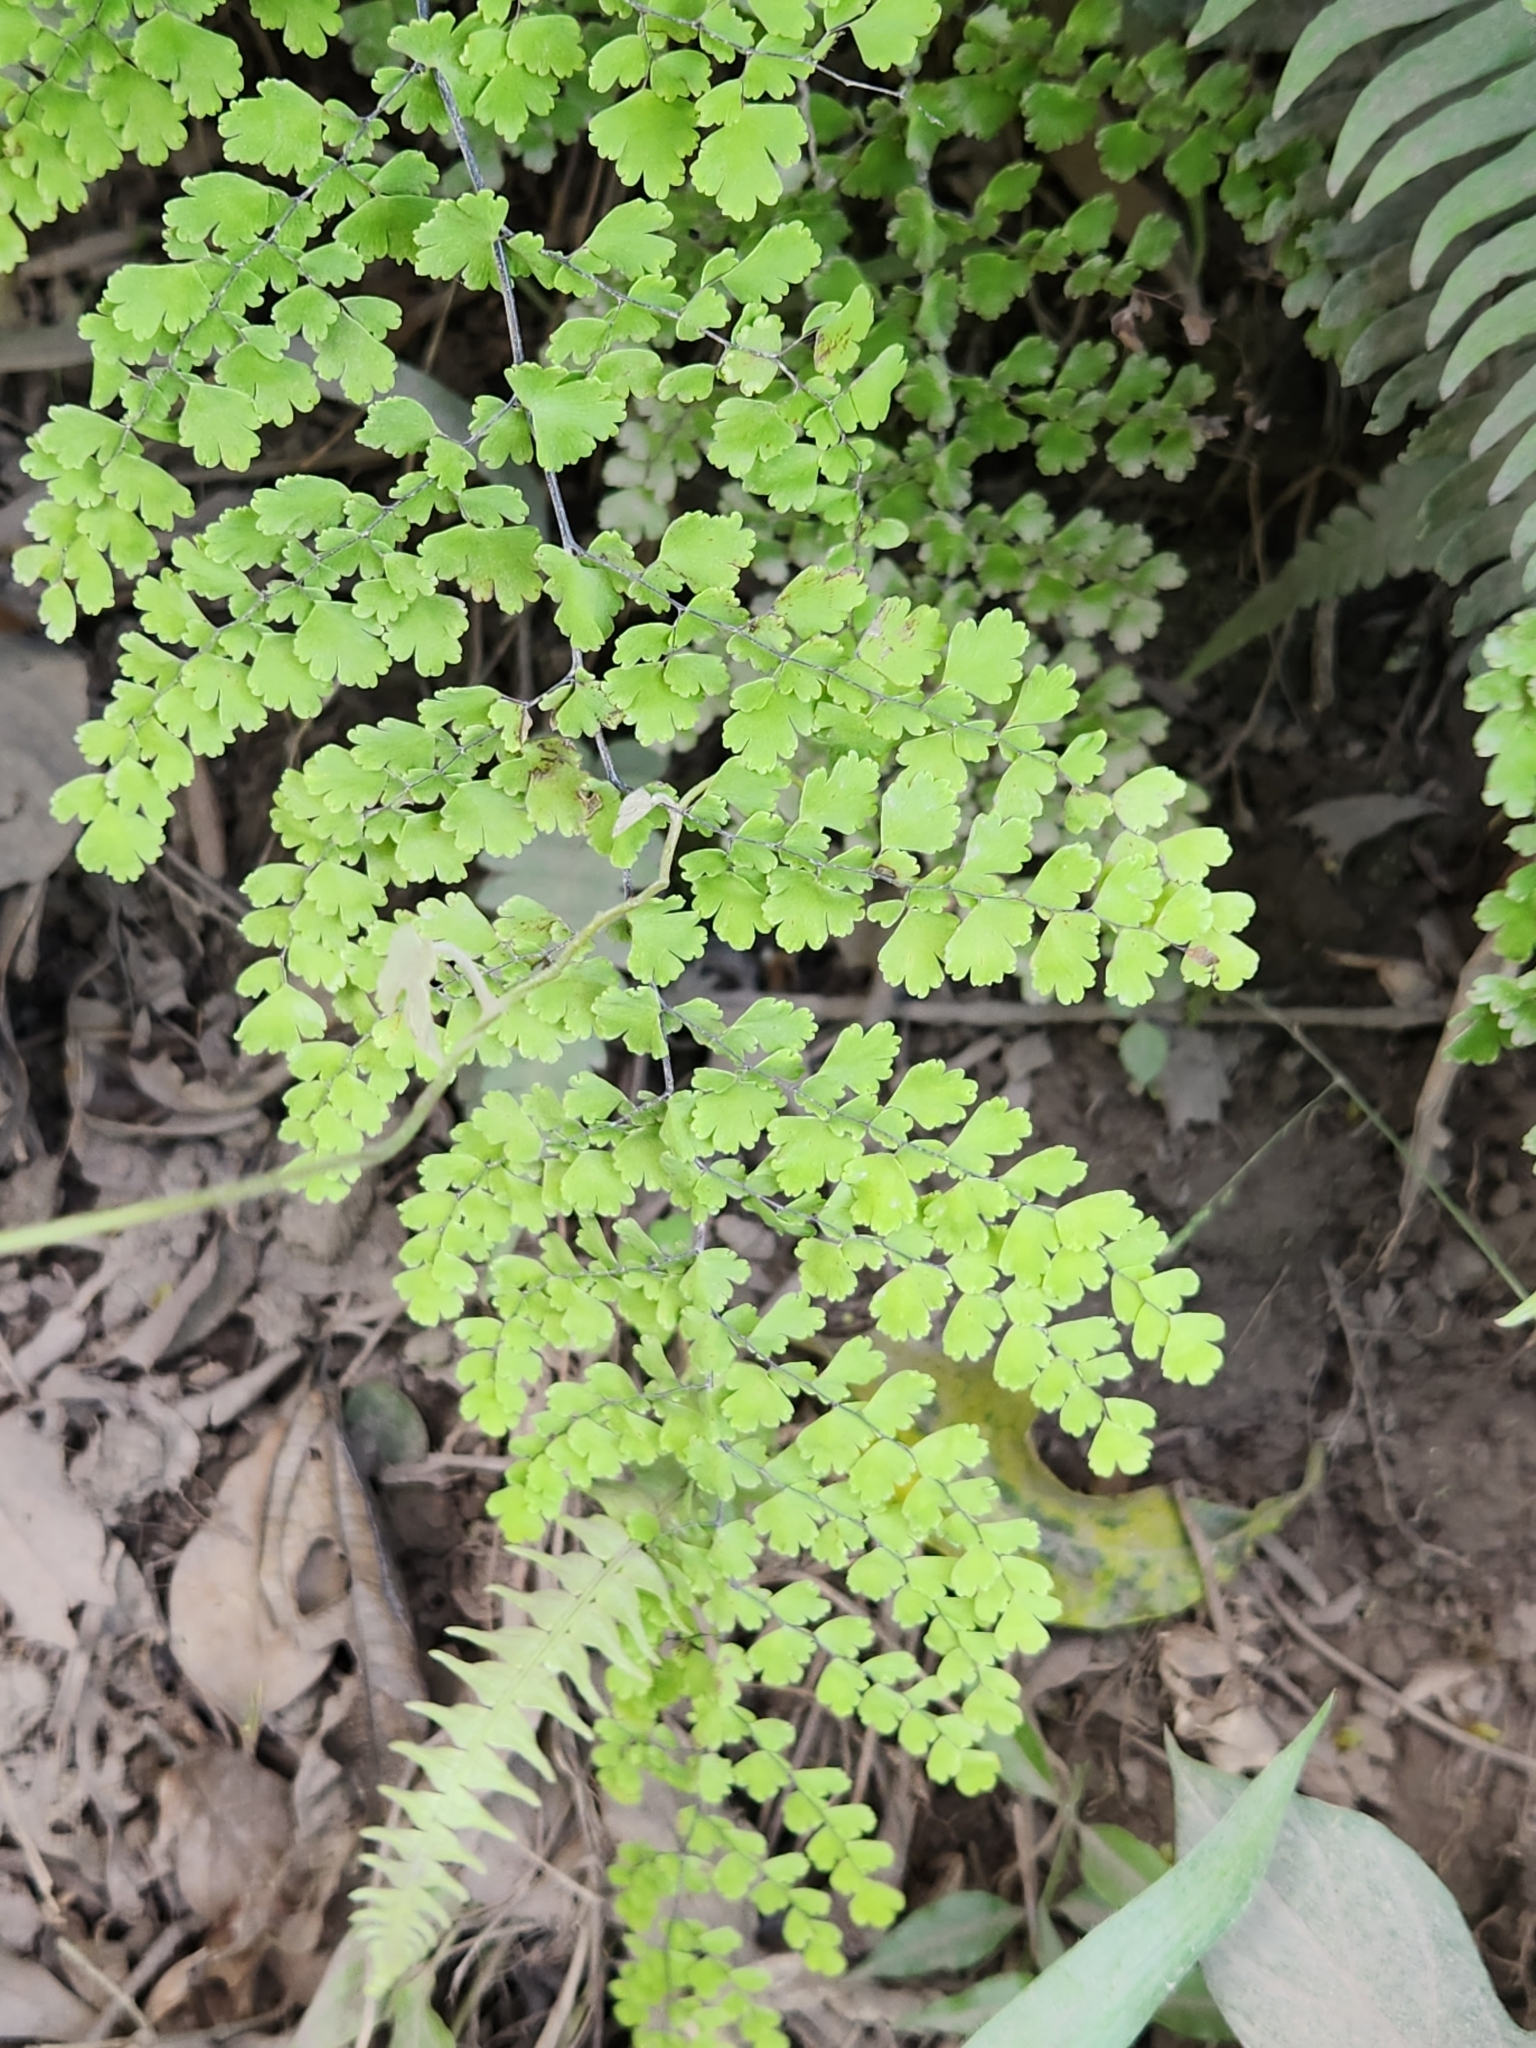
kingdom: Plantae
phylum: Tracheophyta
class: Polypodiopsida
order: Polypodiales
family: Pteridaceae
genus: Adiantum
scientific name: Adiantum concinnum
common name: Brittle maidenhair fern
